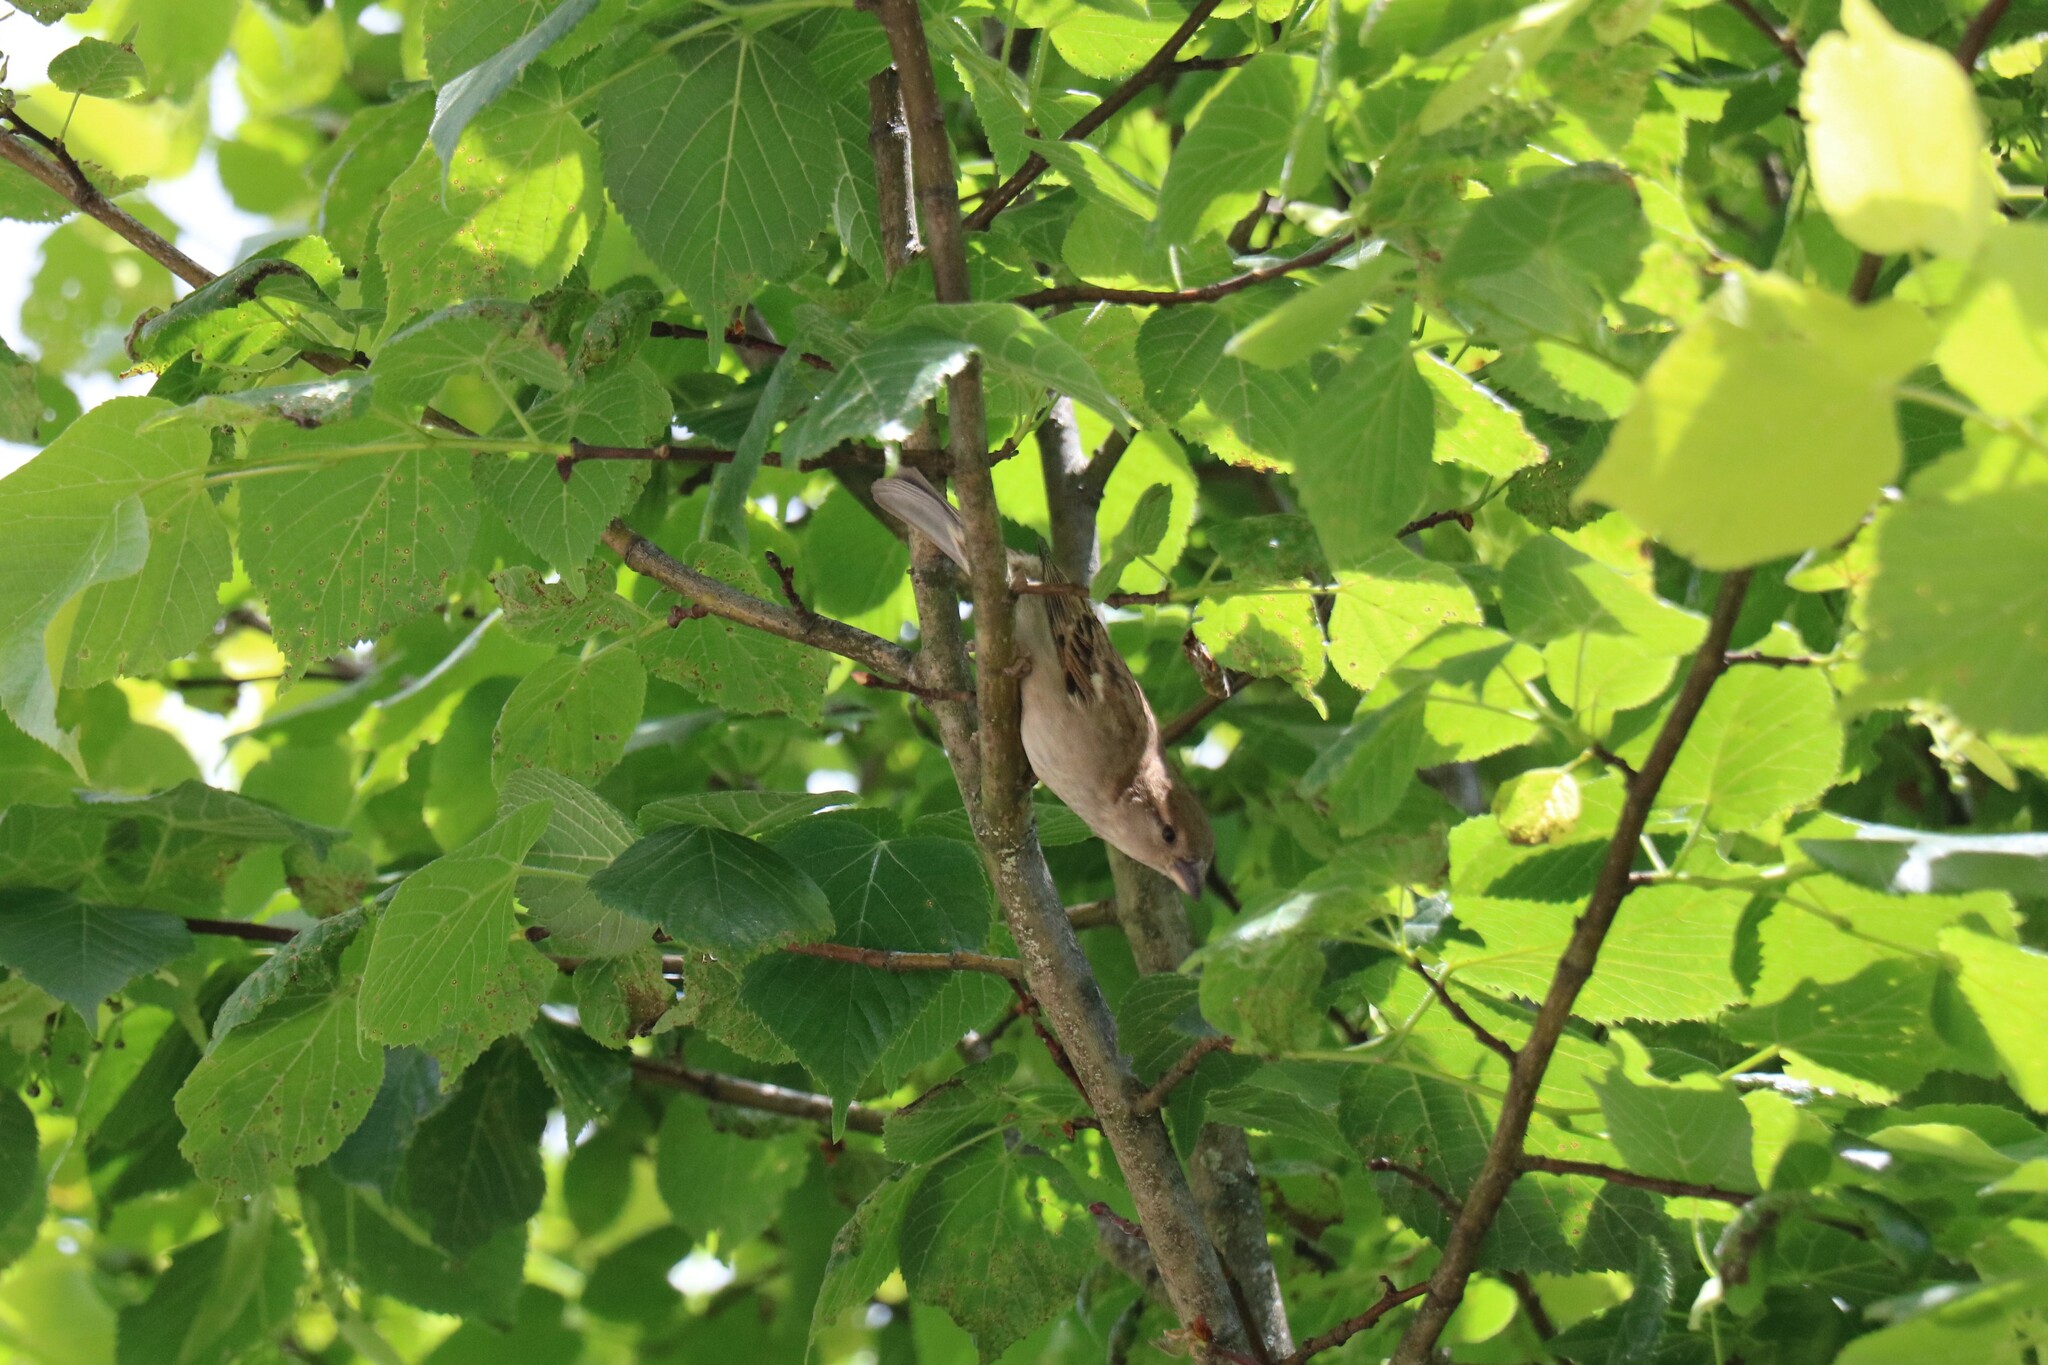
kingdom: Animalia
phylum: Chordata
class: Aves
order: Passeriformes
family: Passeridae
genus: Passer
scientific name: Passer domesticus
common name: House sparrow
